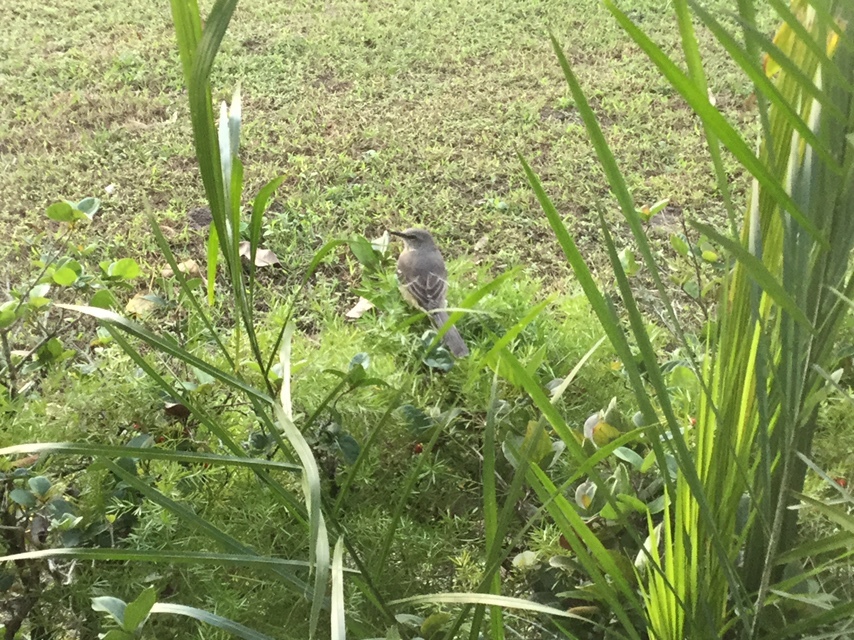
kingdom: Animalia
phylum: Chordata
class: Aves
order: Passeriformes
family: Mimidae
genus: Mimus
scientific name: Mimus polyglottos
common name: Northern mockingbird
